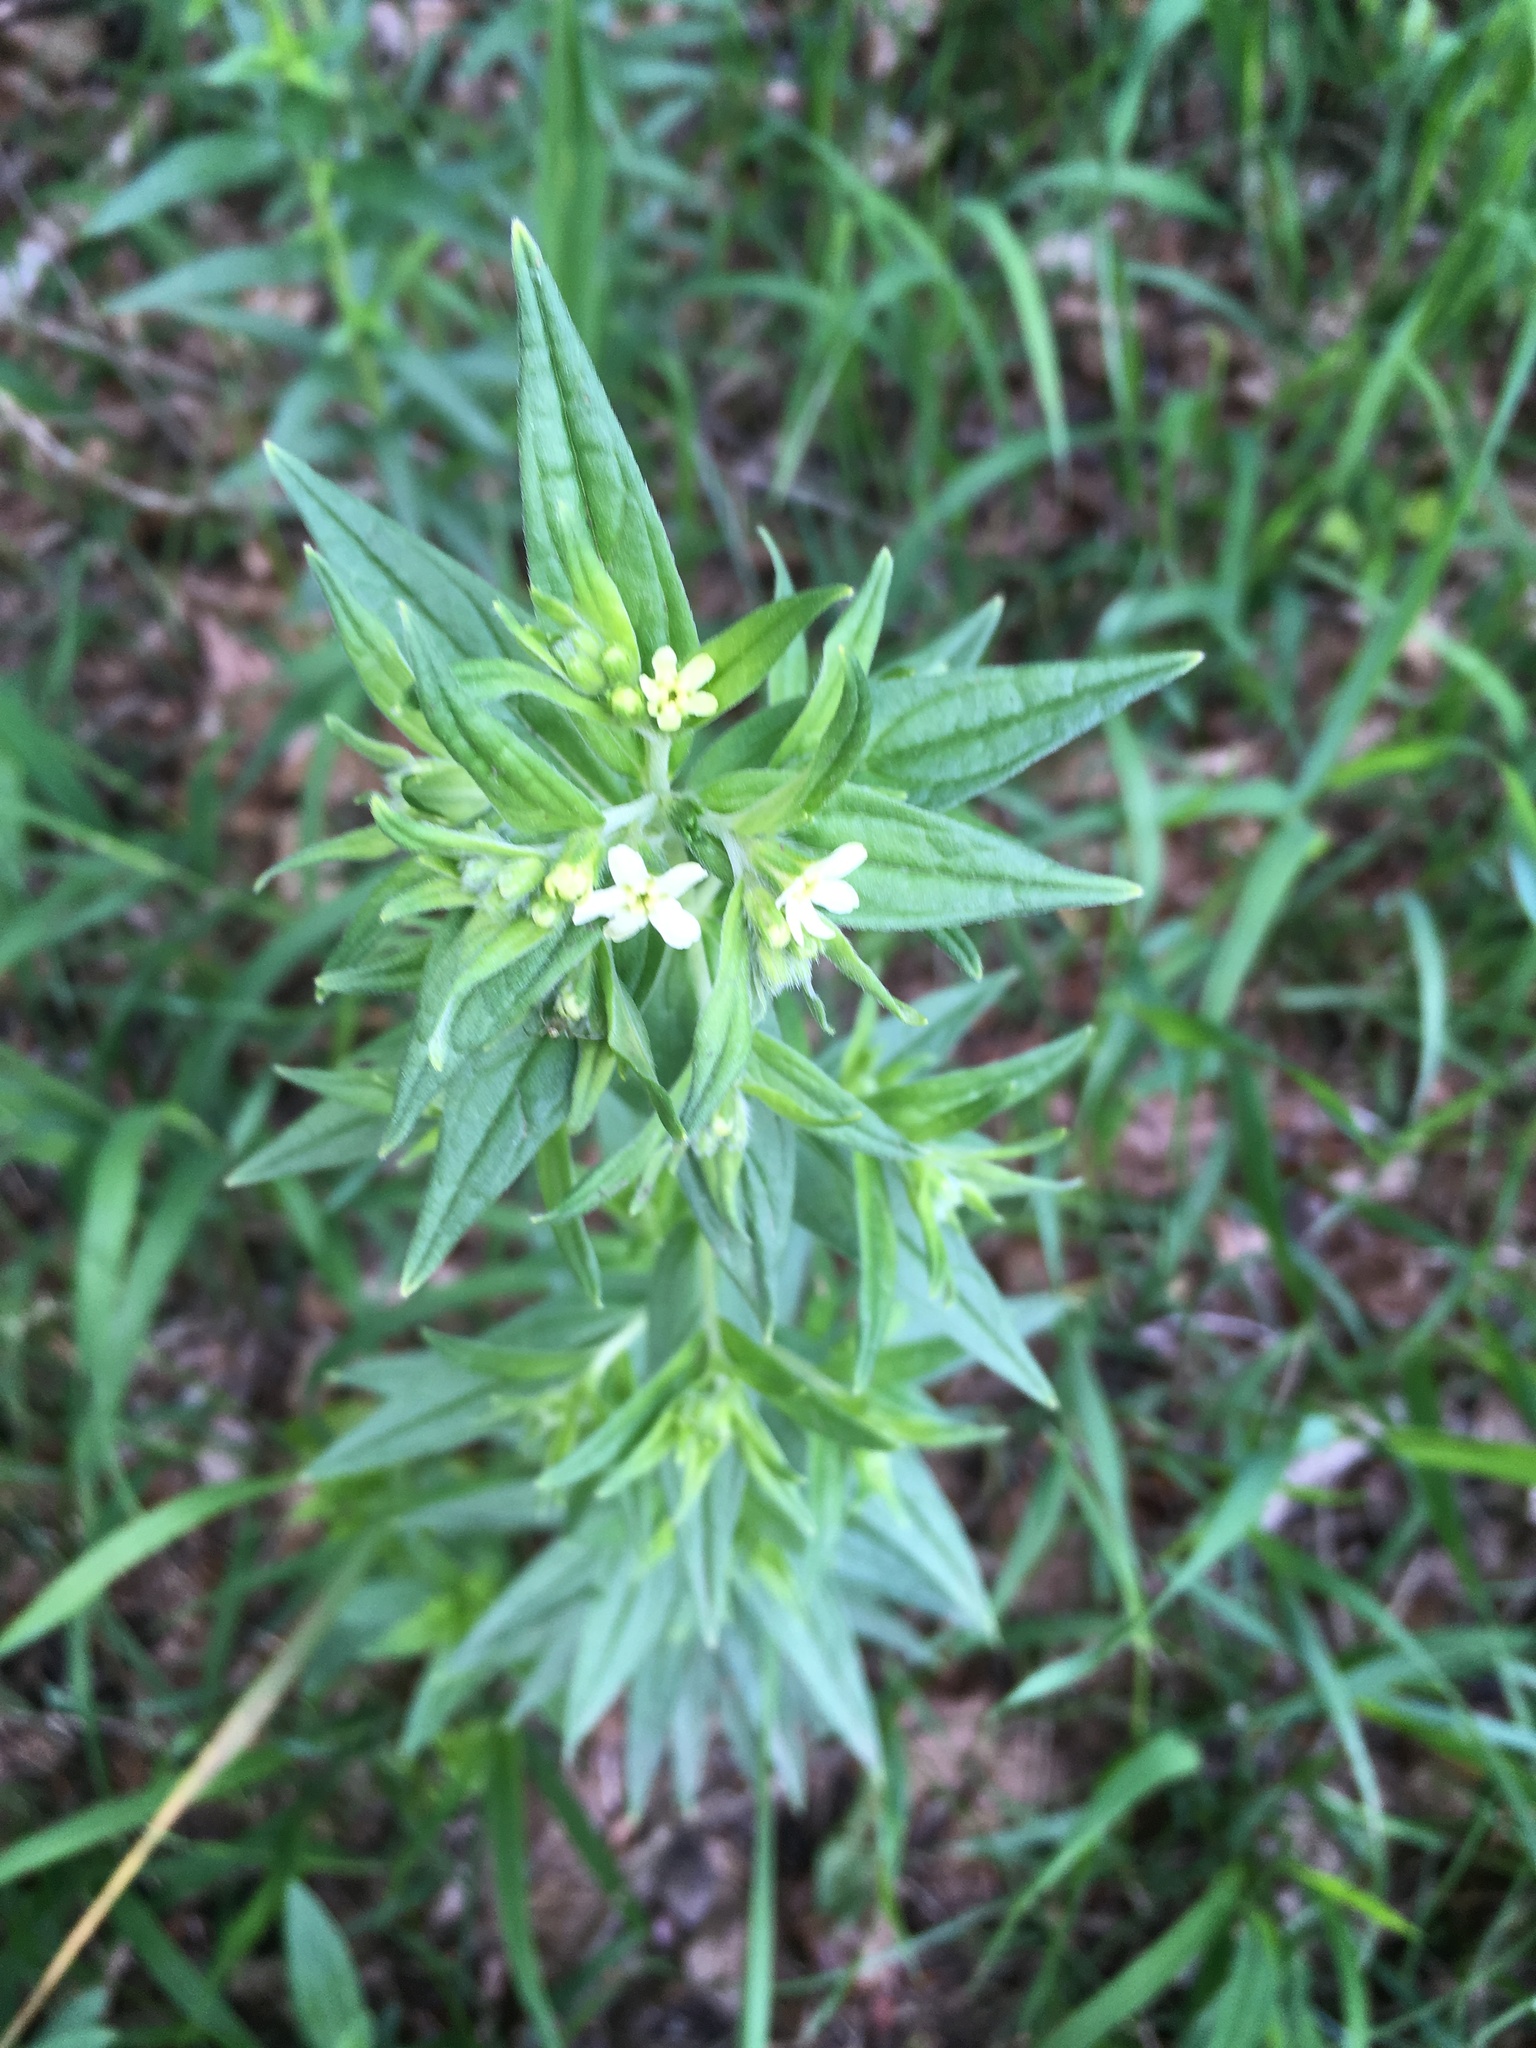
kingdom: Plantae
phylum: Tracheophyta
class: Magnoliopsida
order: Boraginales
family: Boraginaceae
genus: Lithospermum
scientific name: Lithospermum officinale
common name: Common gromwell
